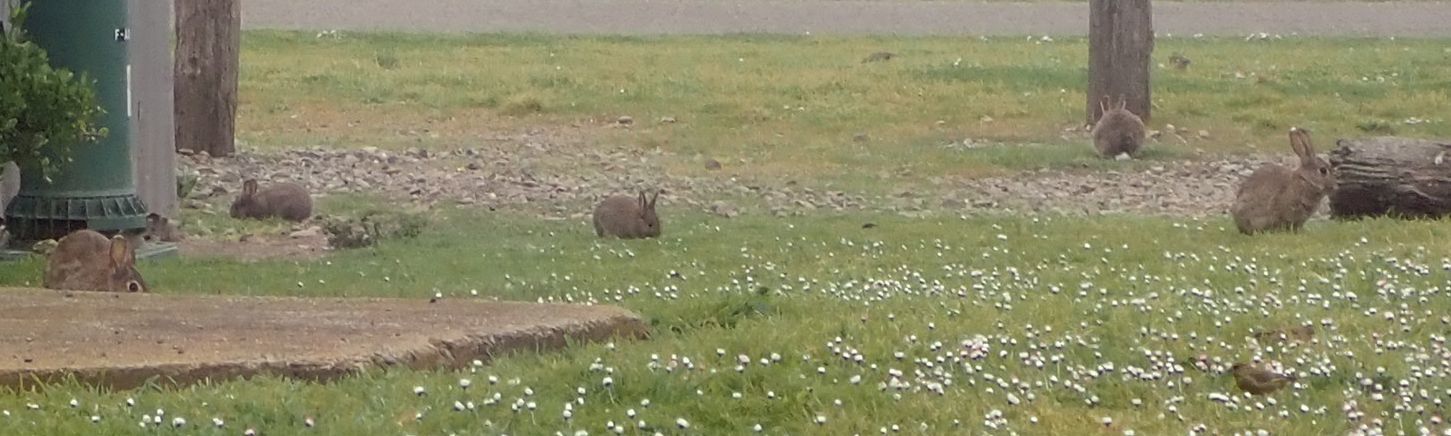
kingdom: Animalia
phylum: Chordata
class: Mammalia
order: Lagomorpha
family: Leporidae
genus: Oryctolagus
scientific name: Oryctolagus cuniculus
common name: European rabbit
